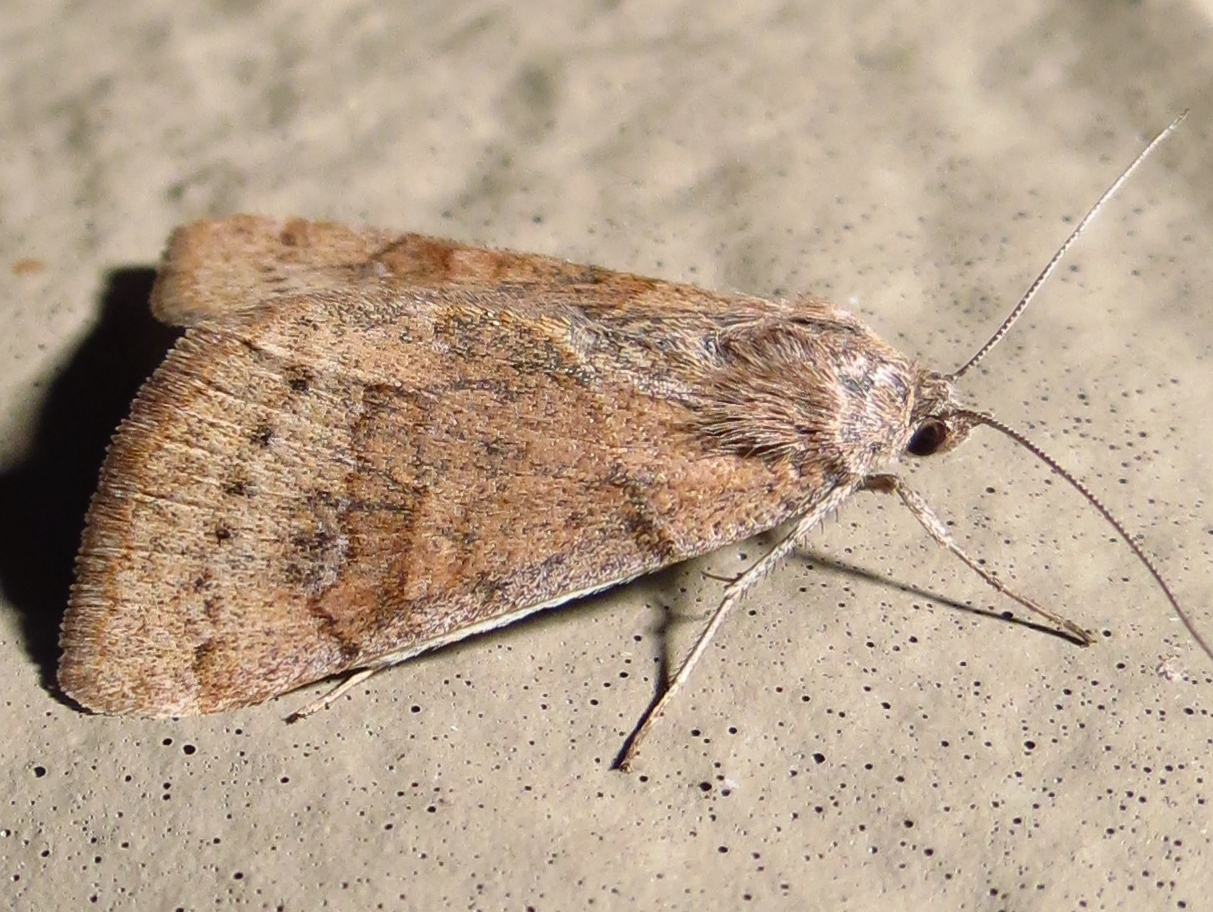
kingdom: Animalia
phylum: Arthropoda
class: Insecta
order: Lepidoptera
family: Erebidae
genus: Caenurgina
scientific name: Caenurgina erechtea
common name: Forage looper moth
